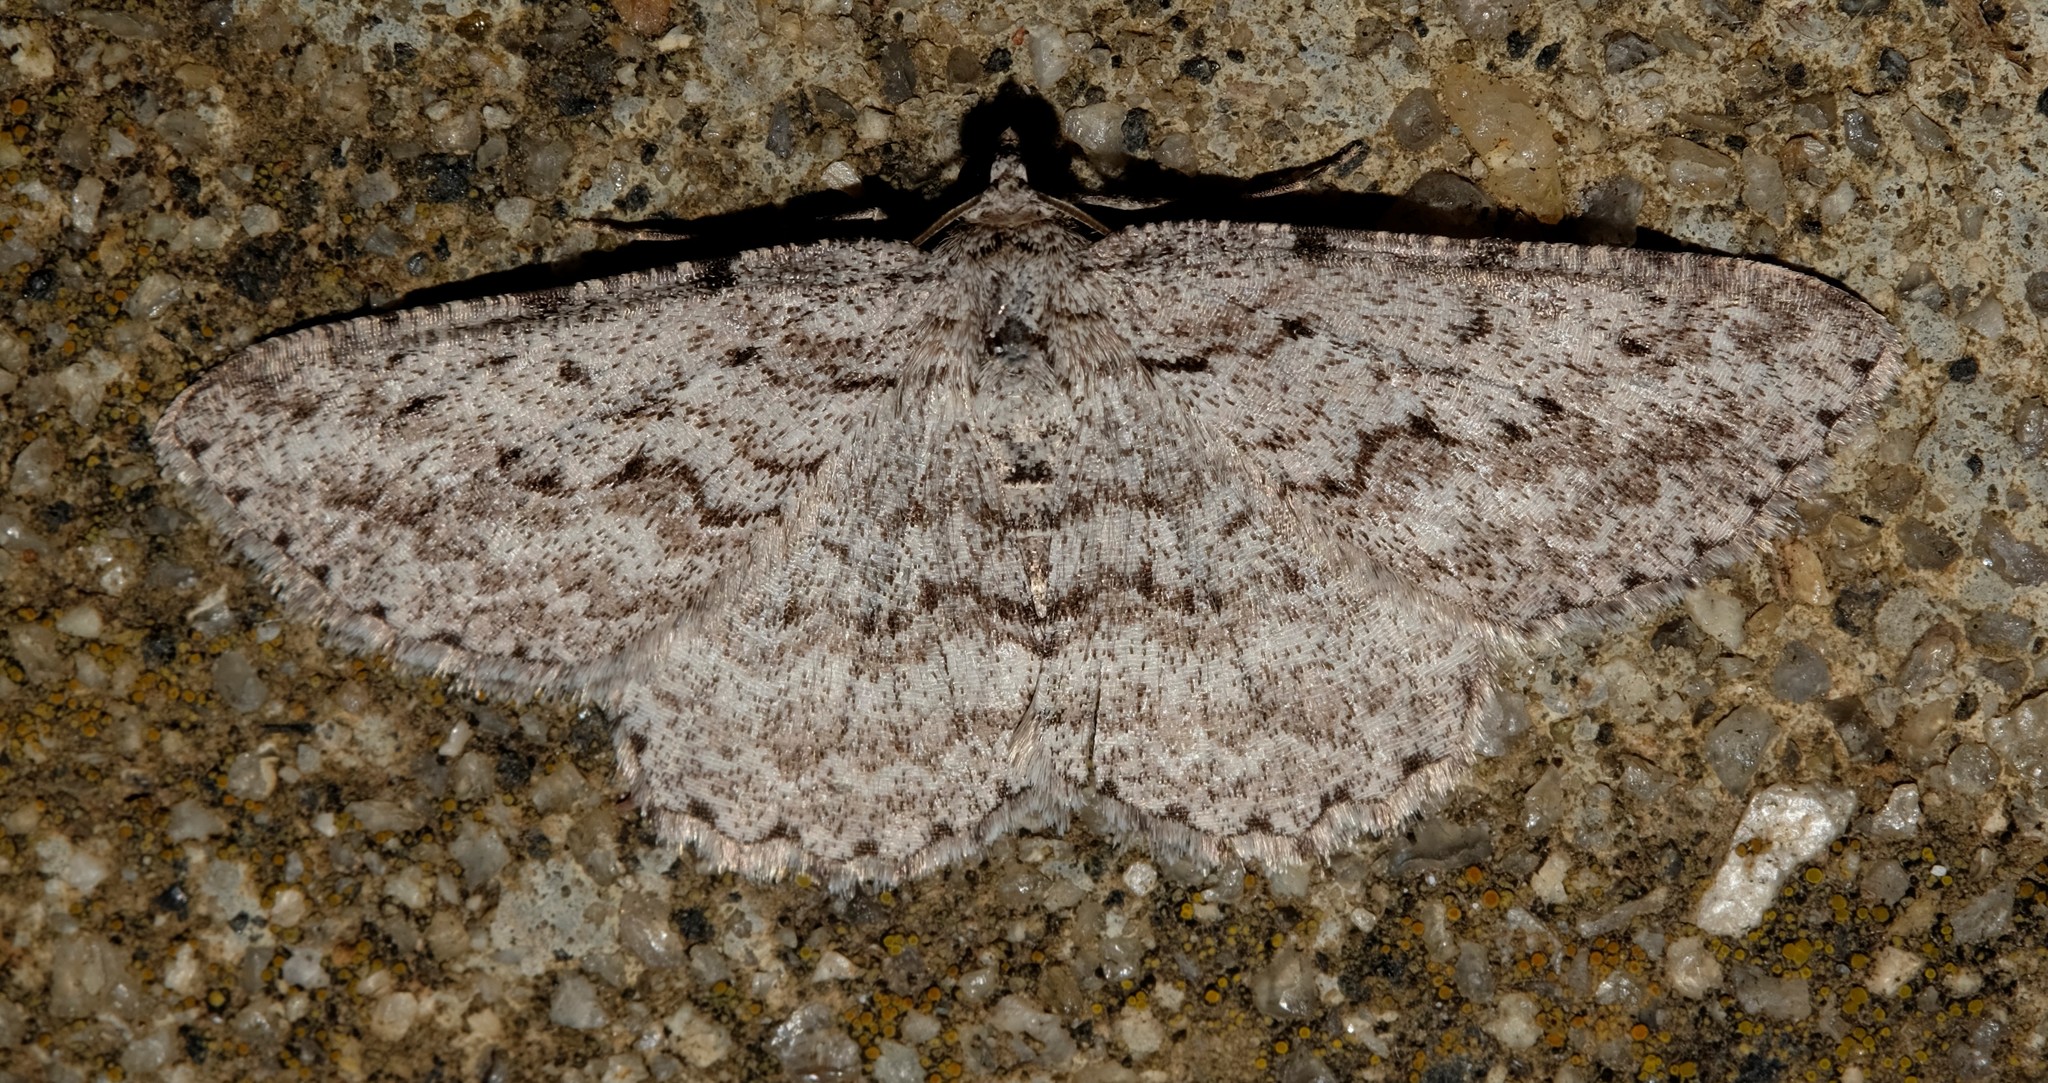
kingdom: Animalia
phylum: Arthropoda
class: Insecta
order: Lepidoptera
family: Geometridae
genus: Psilosticha
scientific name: Psilosticha absorpta
